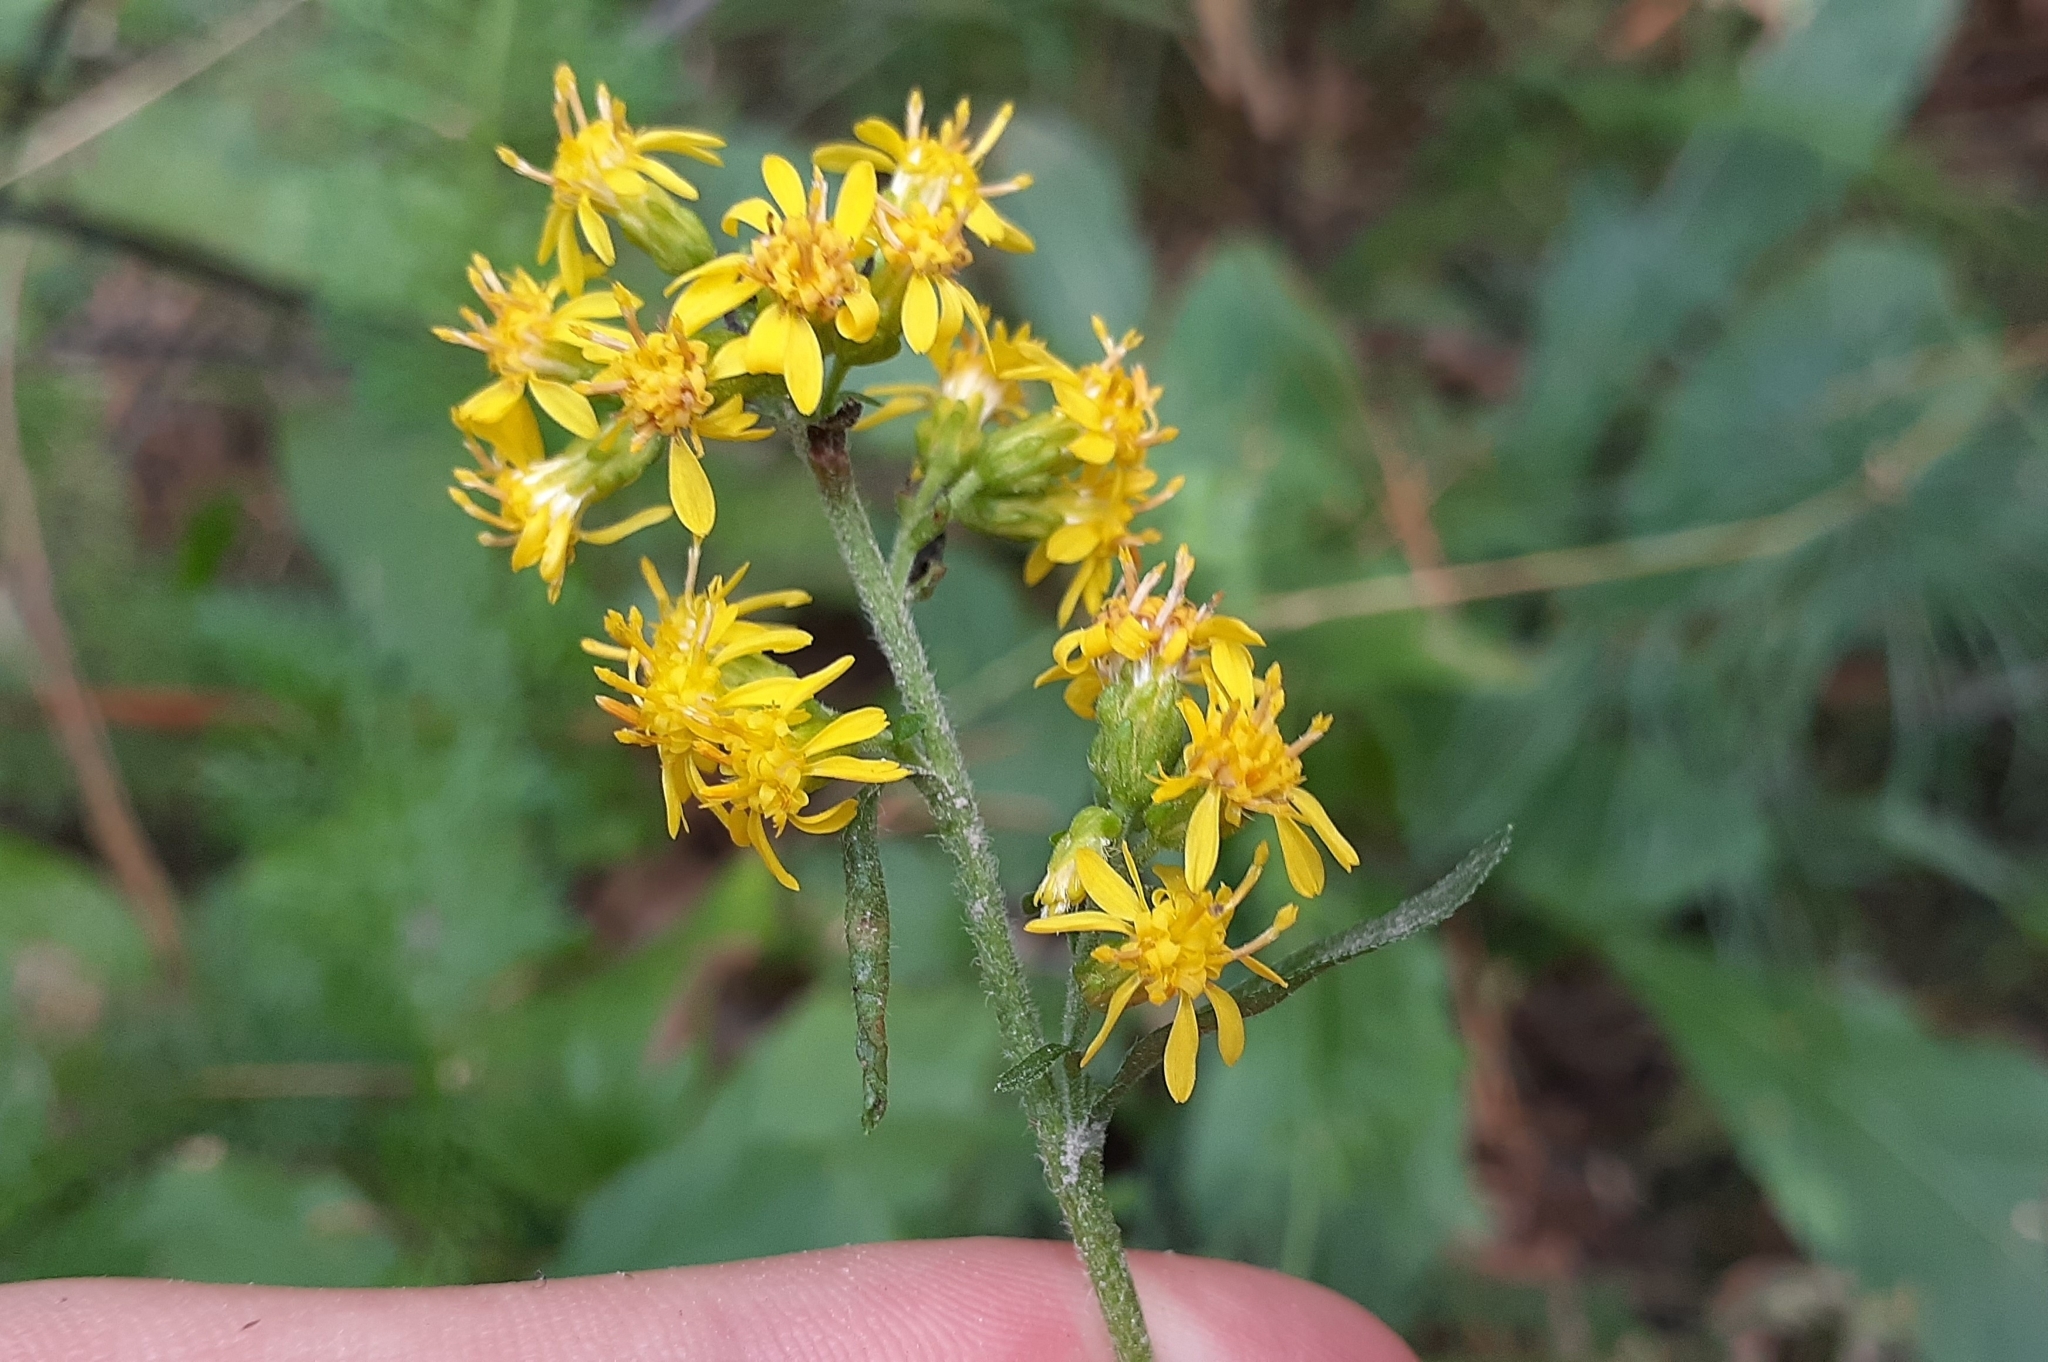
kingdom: Plantae
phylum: Tracheophyta
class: Magnoliopsida
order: Asterales
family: Asteraceae
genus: Solidago
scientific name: Solidago hispida
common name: Hairy goldenrod
